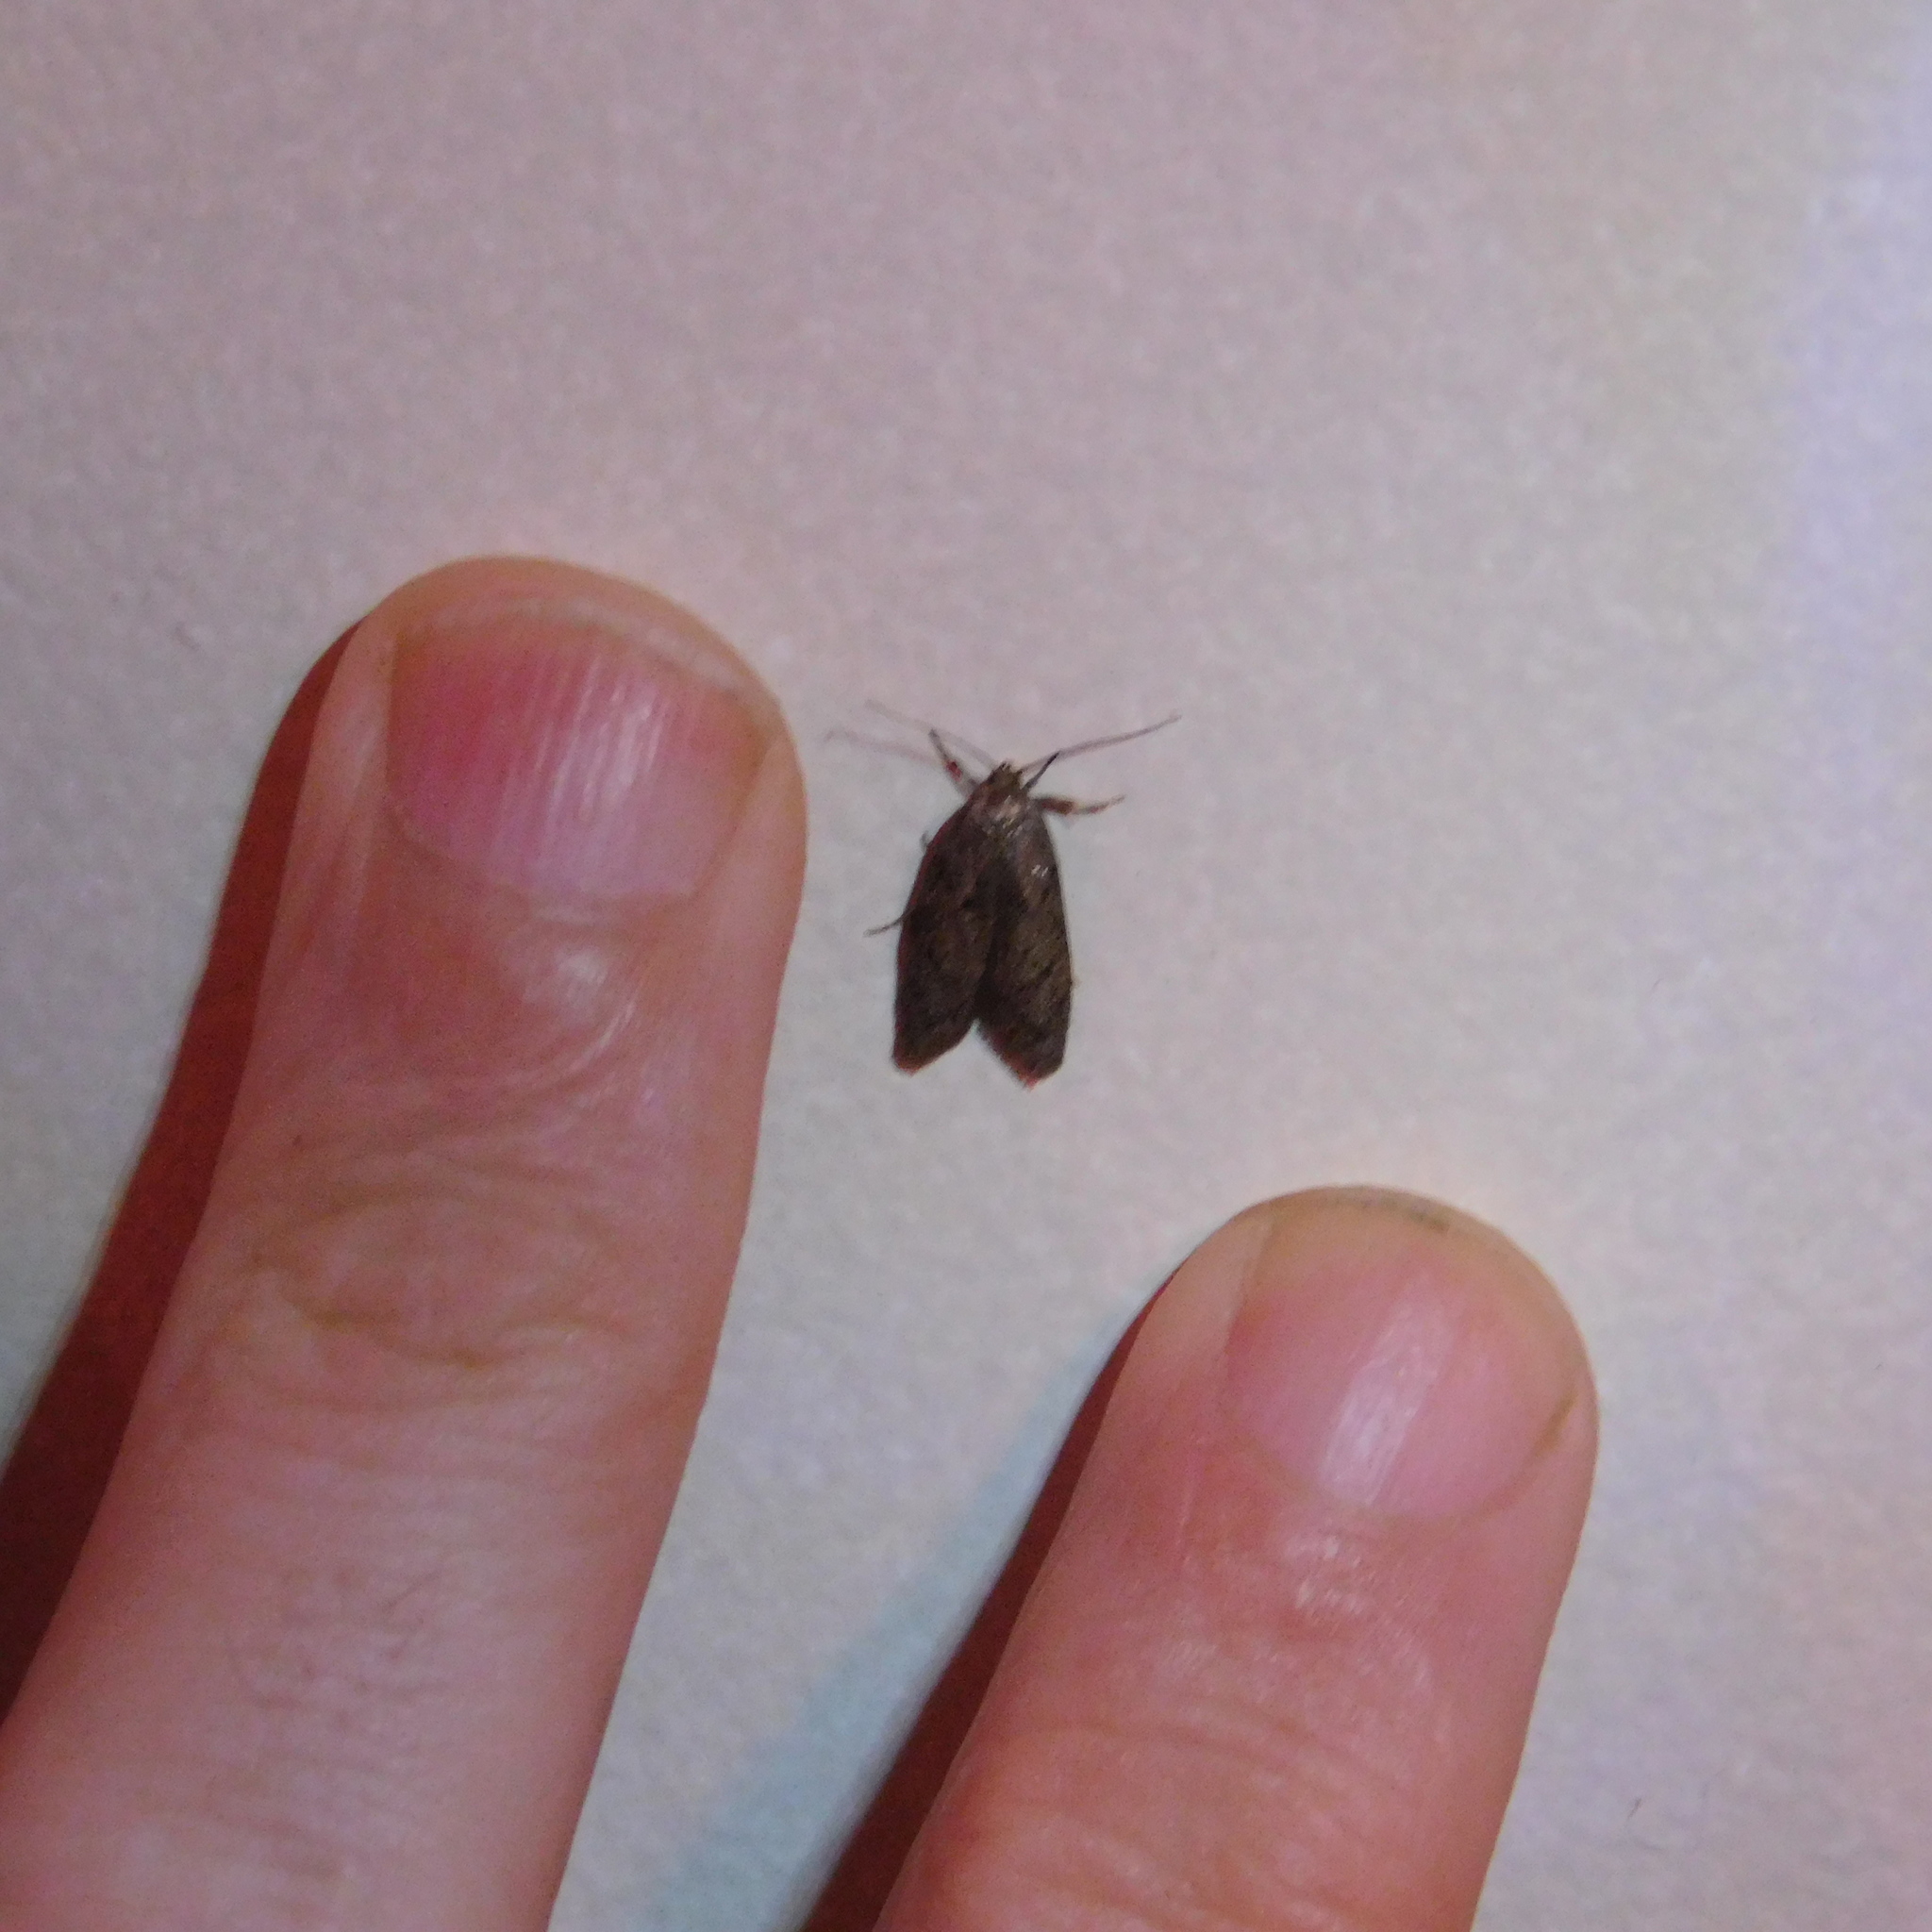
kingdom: Animalia
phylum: Arthropoda
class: Insecta
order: Lepidoptera
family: Oecophoridae
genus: Leptocroca
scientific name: Leptocroca
